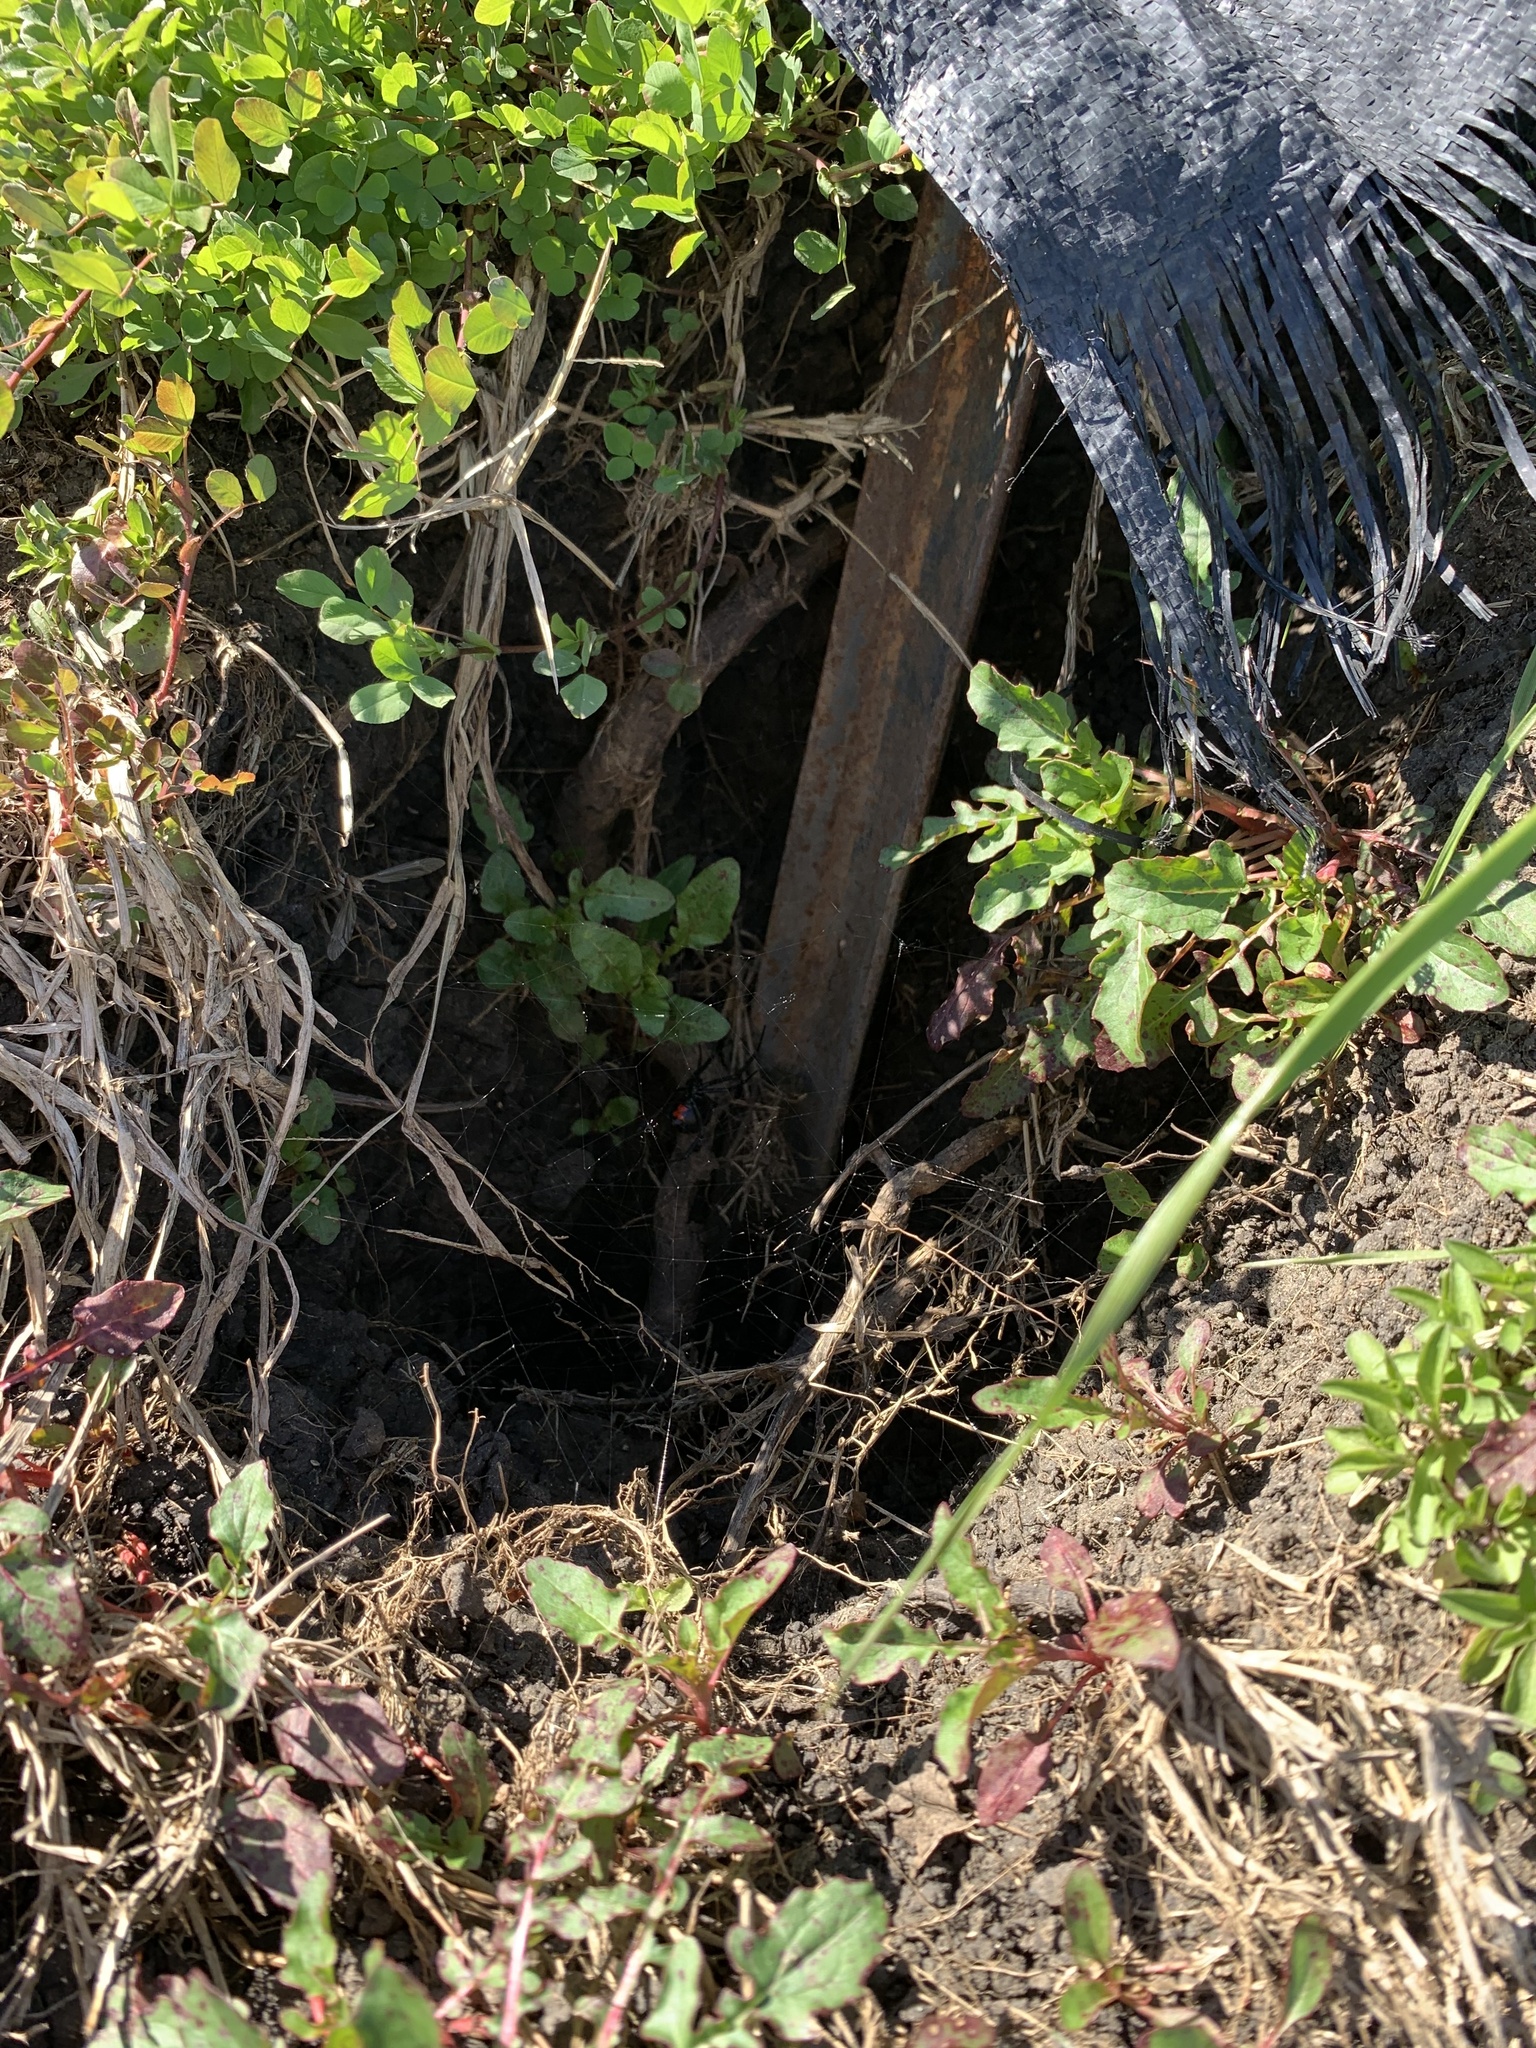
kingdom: Animalia
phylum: Arthropoda
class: Arachnida
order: Araneae
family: Theridiidae
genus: Latrodectus
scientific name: Latrodectus mactans
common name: Cobweb spiders
